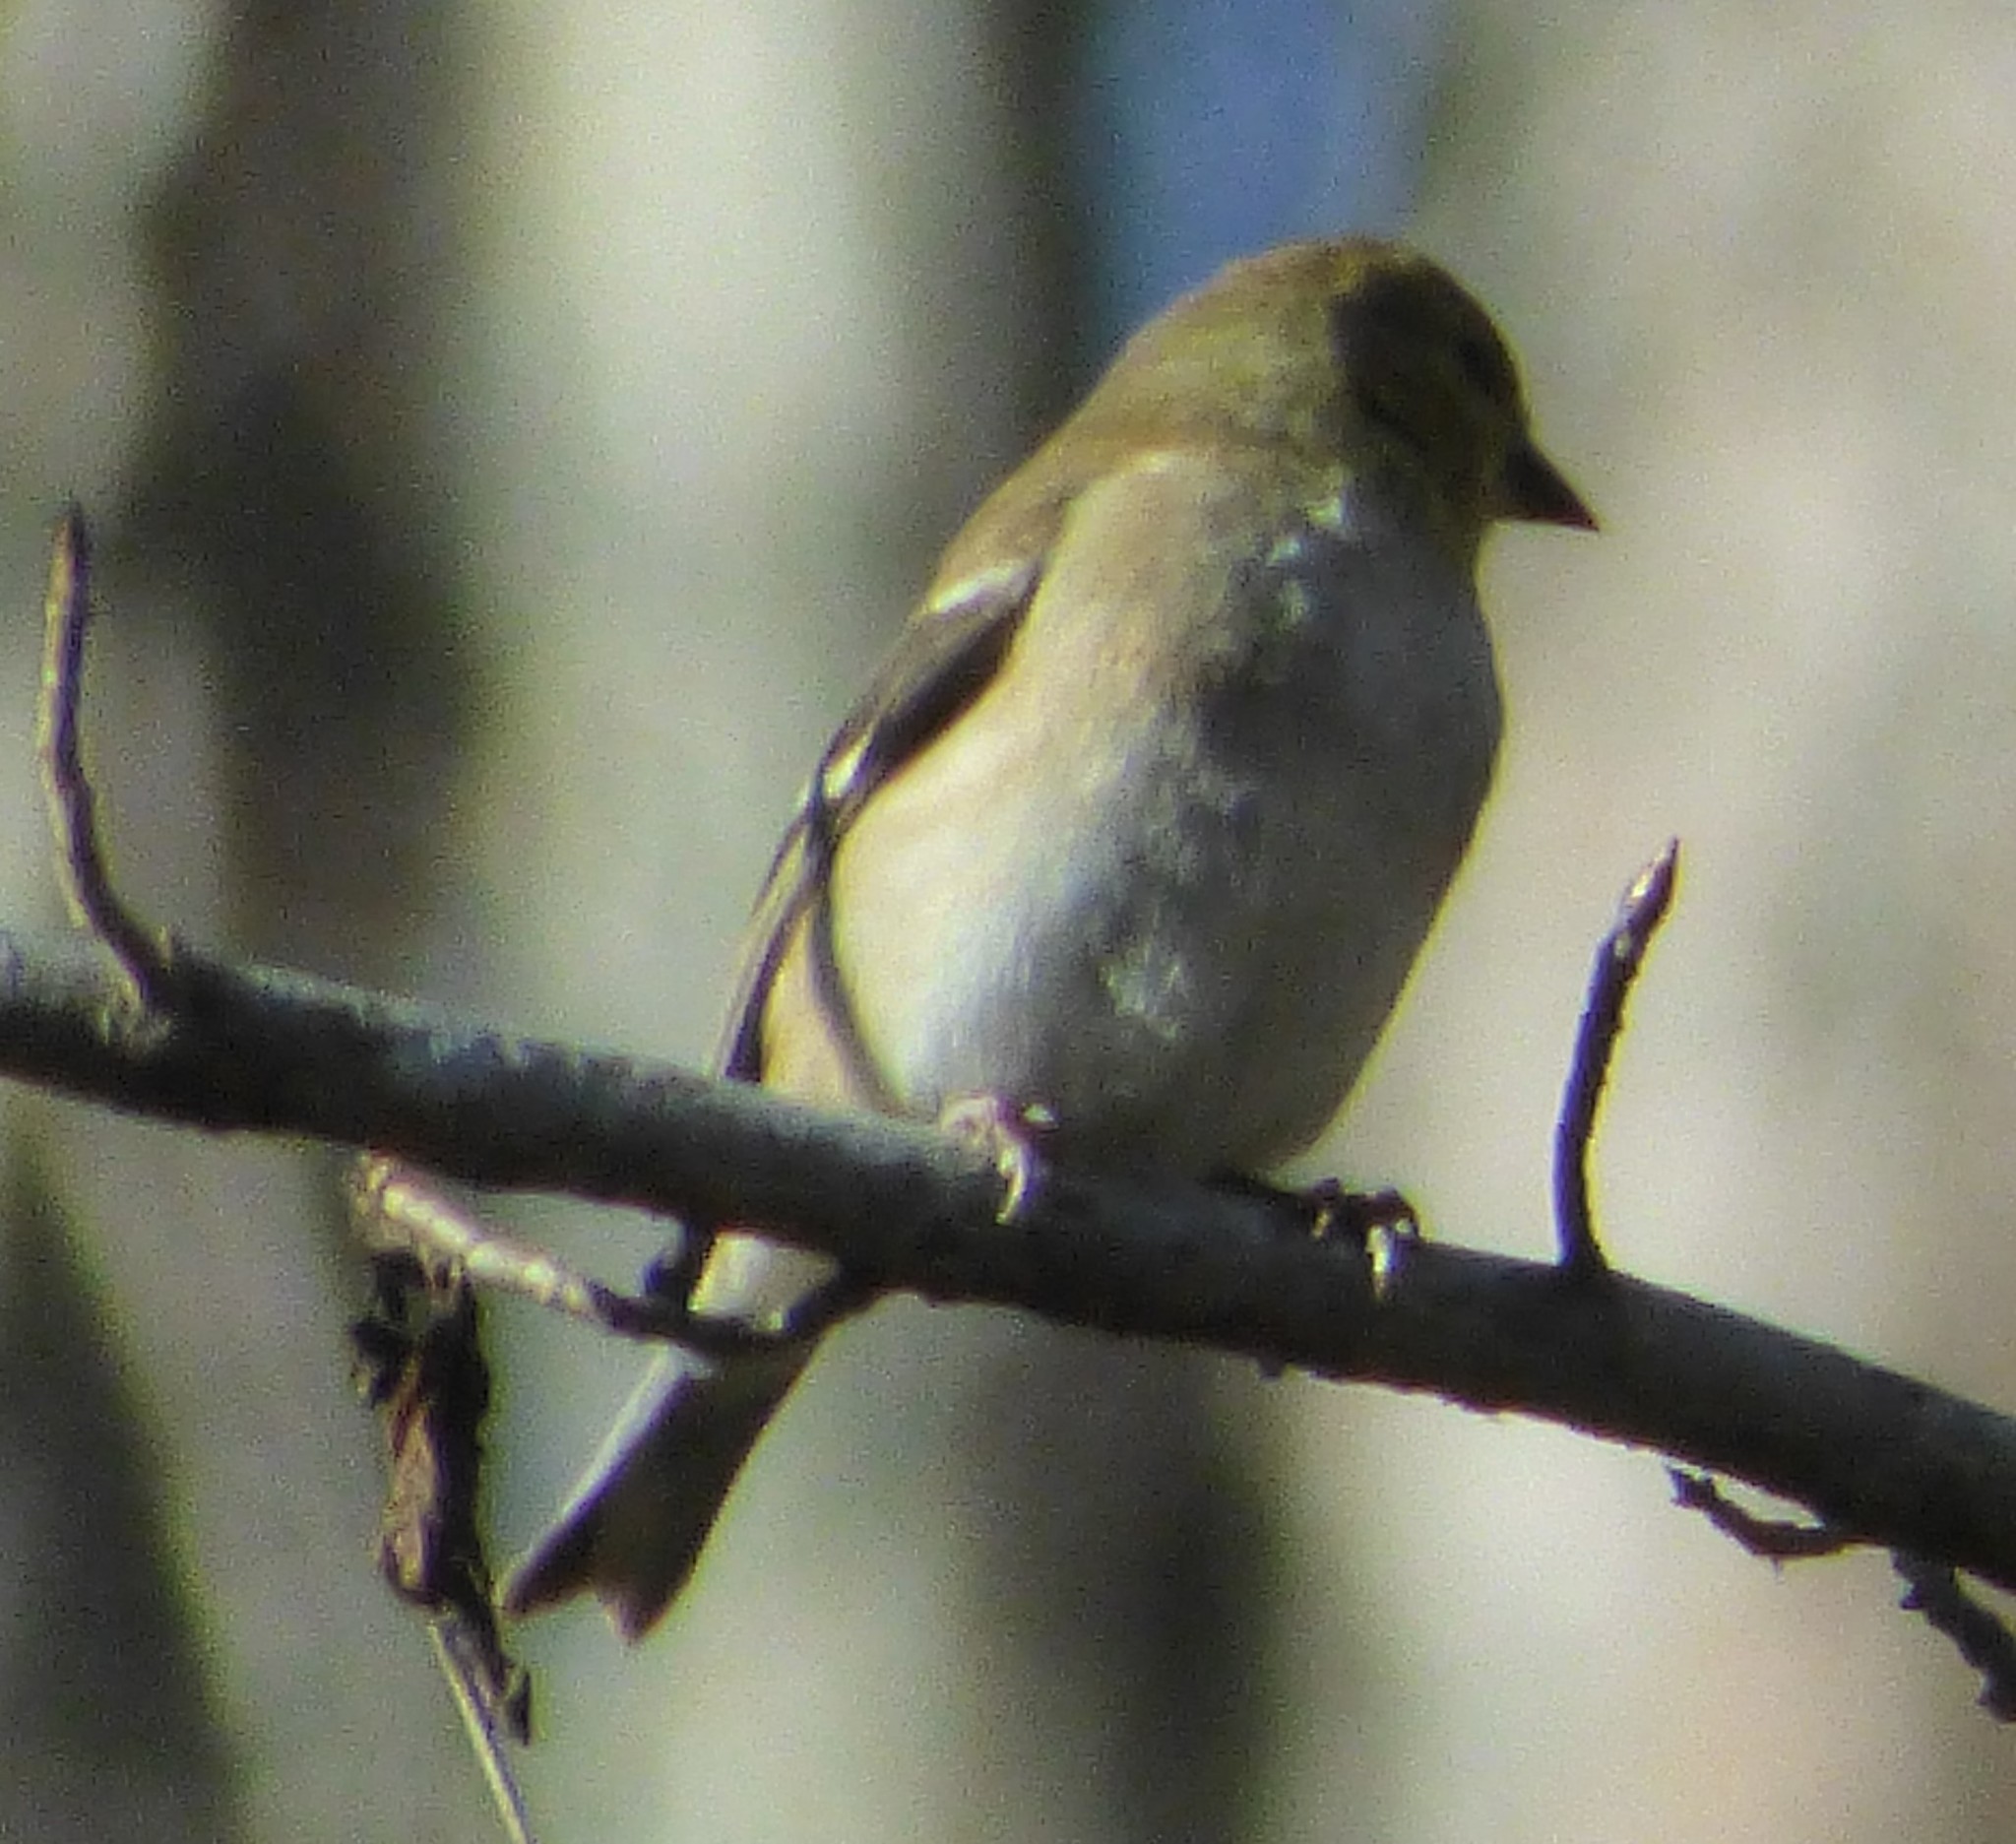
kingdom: Animalia
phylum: Chordata
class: Aves
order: Passeriformes
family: Fringillidae
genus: Spinus
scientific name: Spinus tristis
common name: American goldfinch
